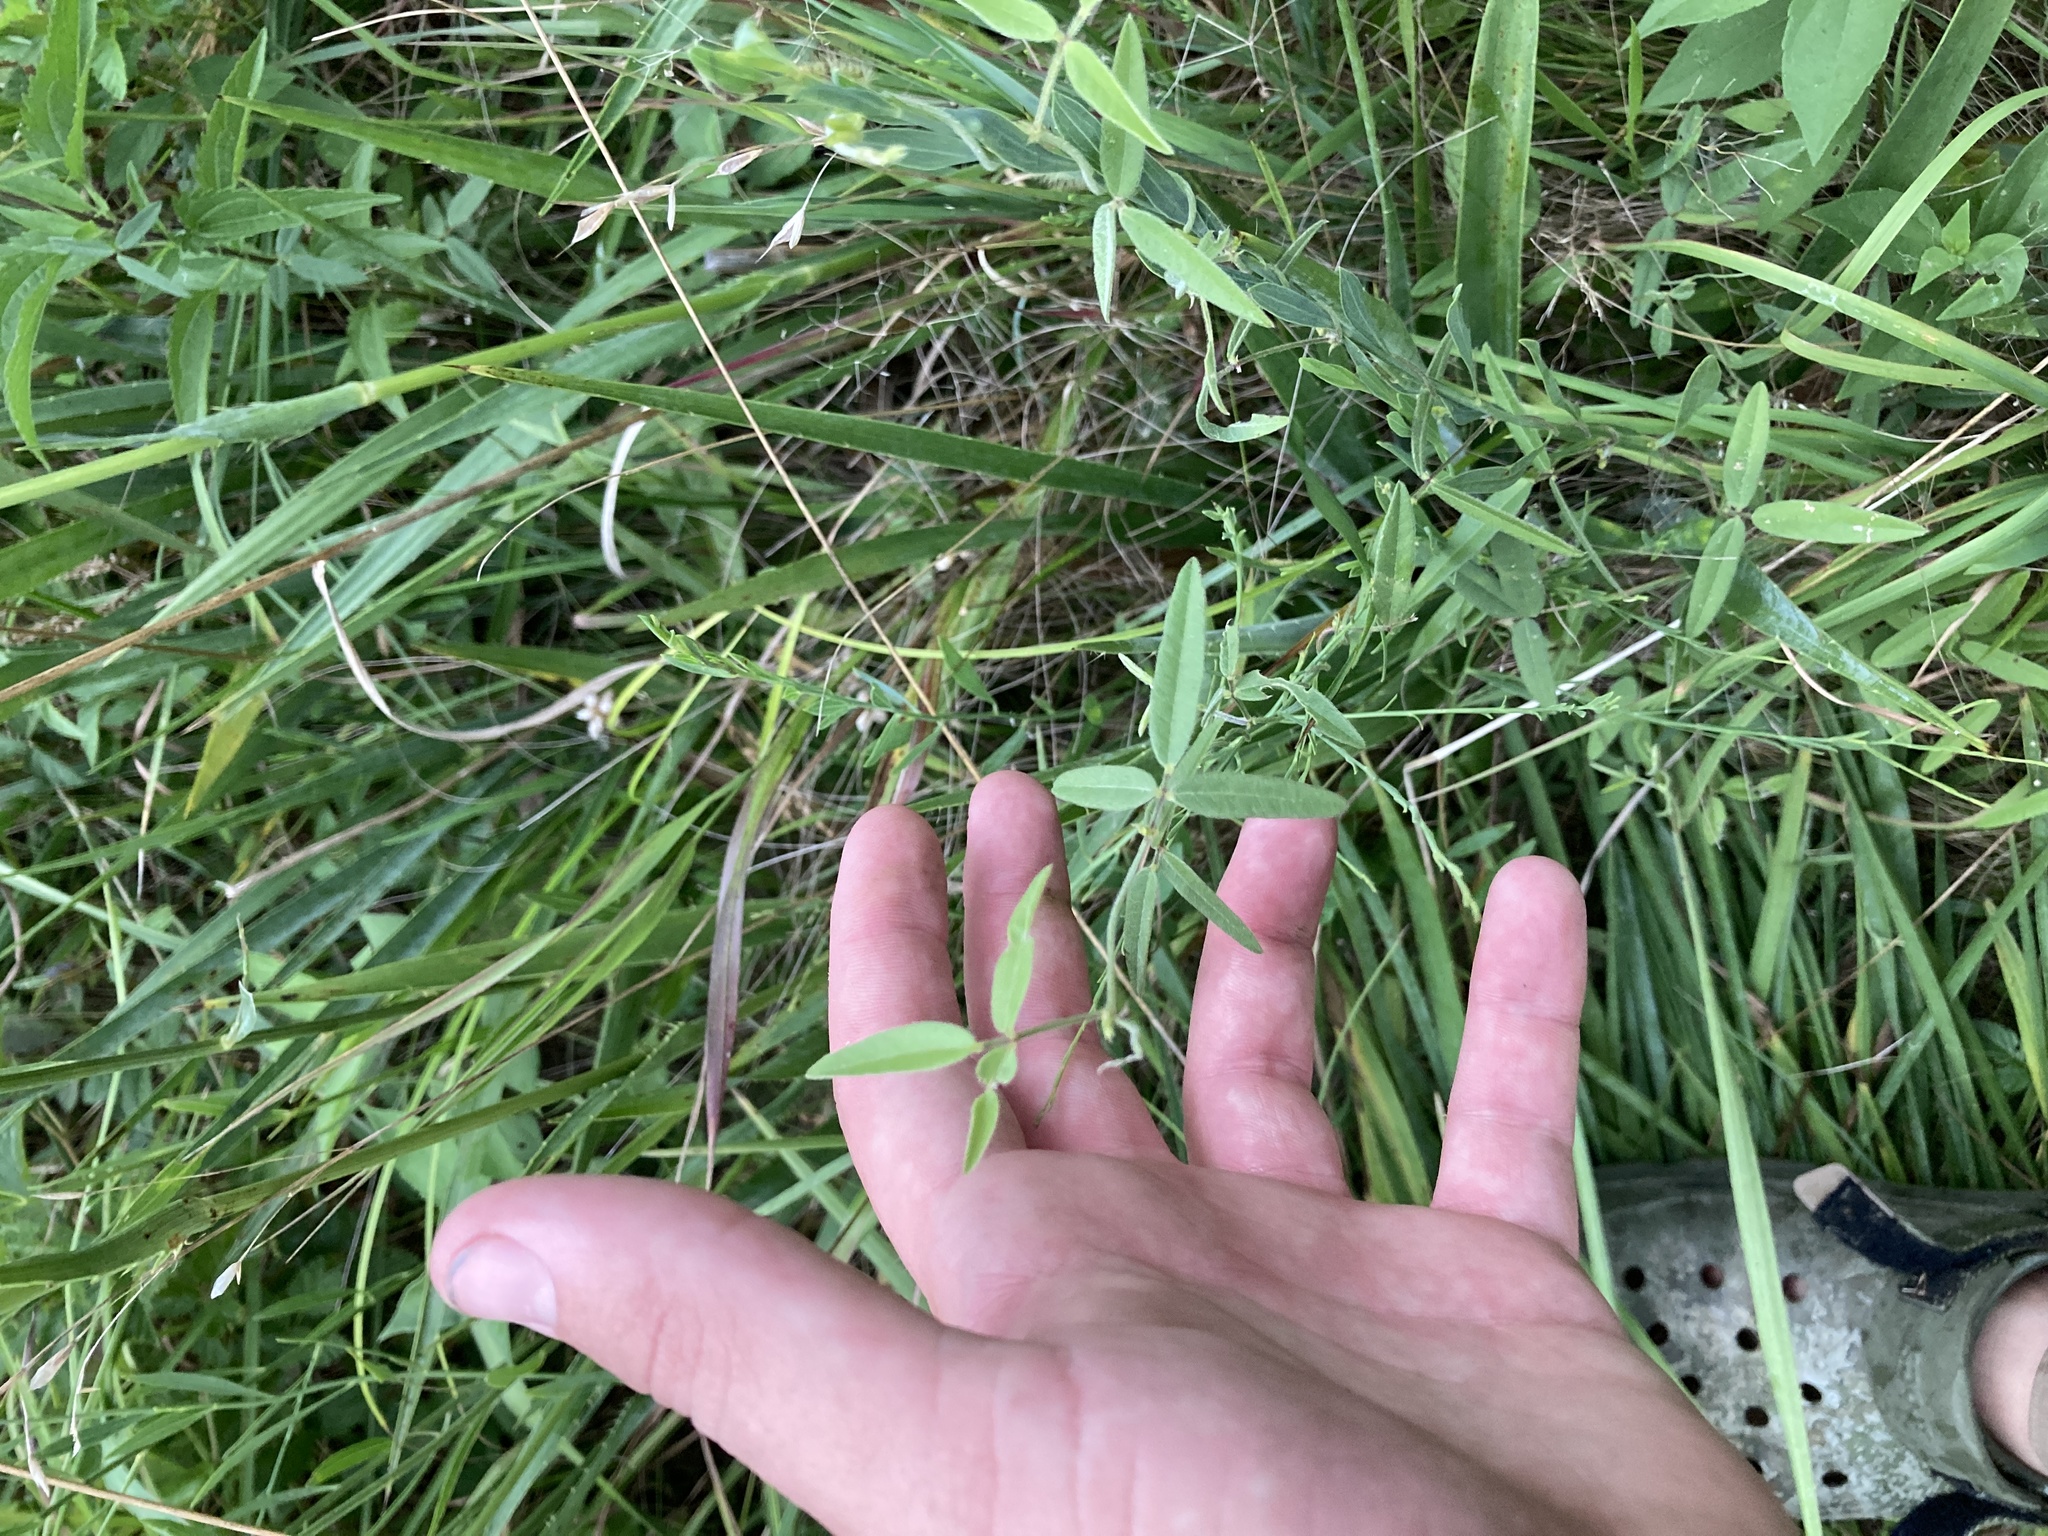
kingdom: Plantae
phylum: Tracheophyta
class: Magnoliopsida
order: Fabales
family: Fabaceae
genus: Galactia
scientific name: Galactia volubilis
